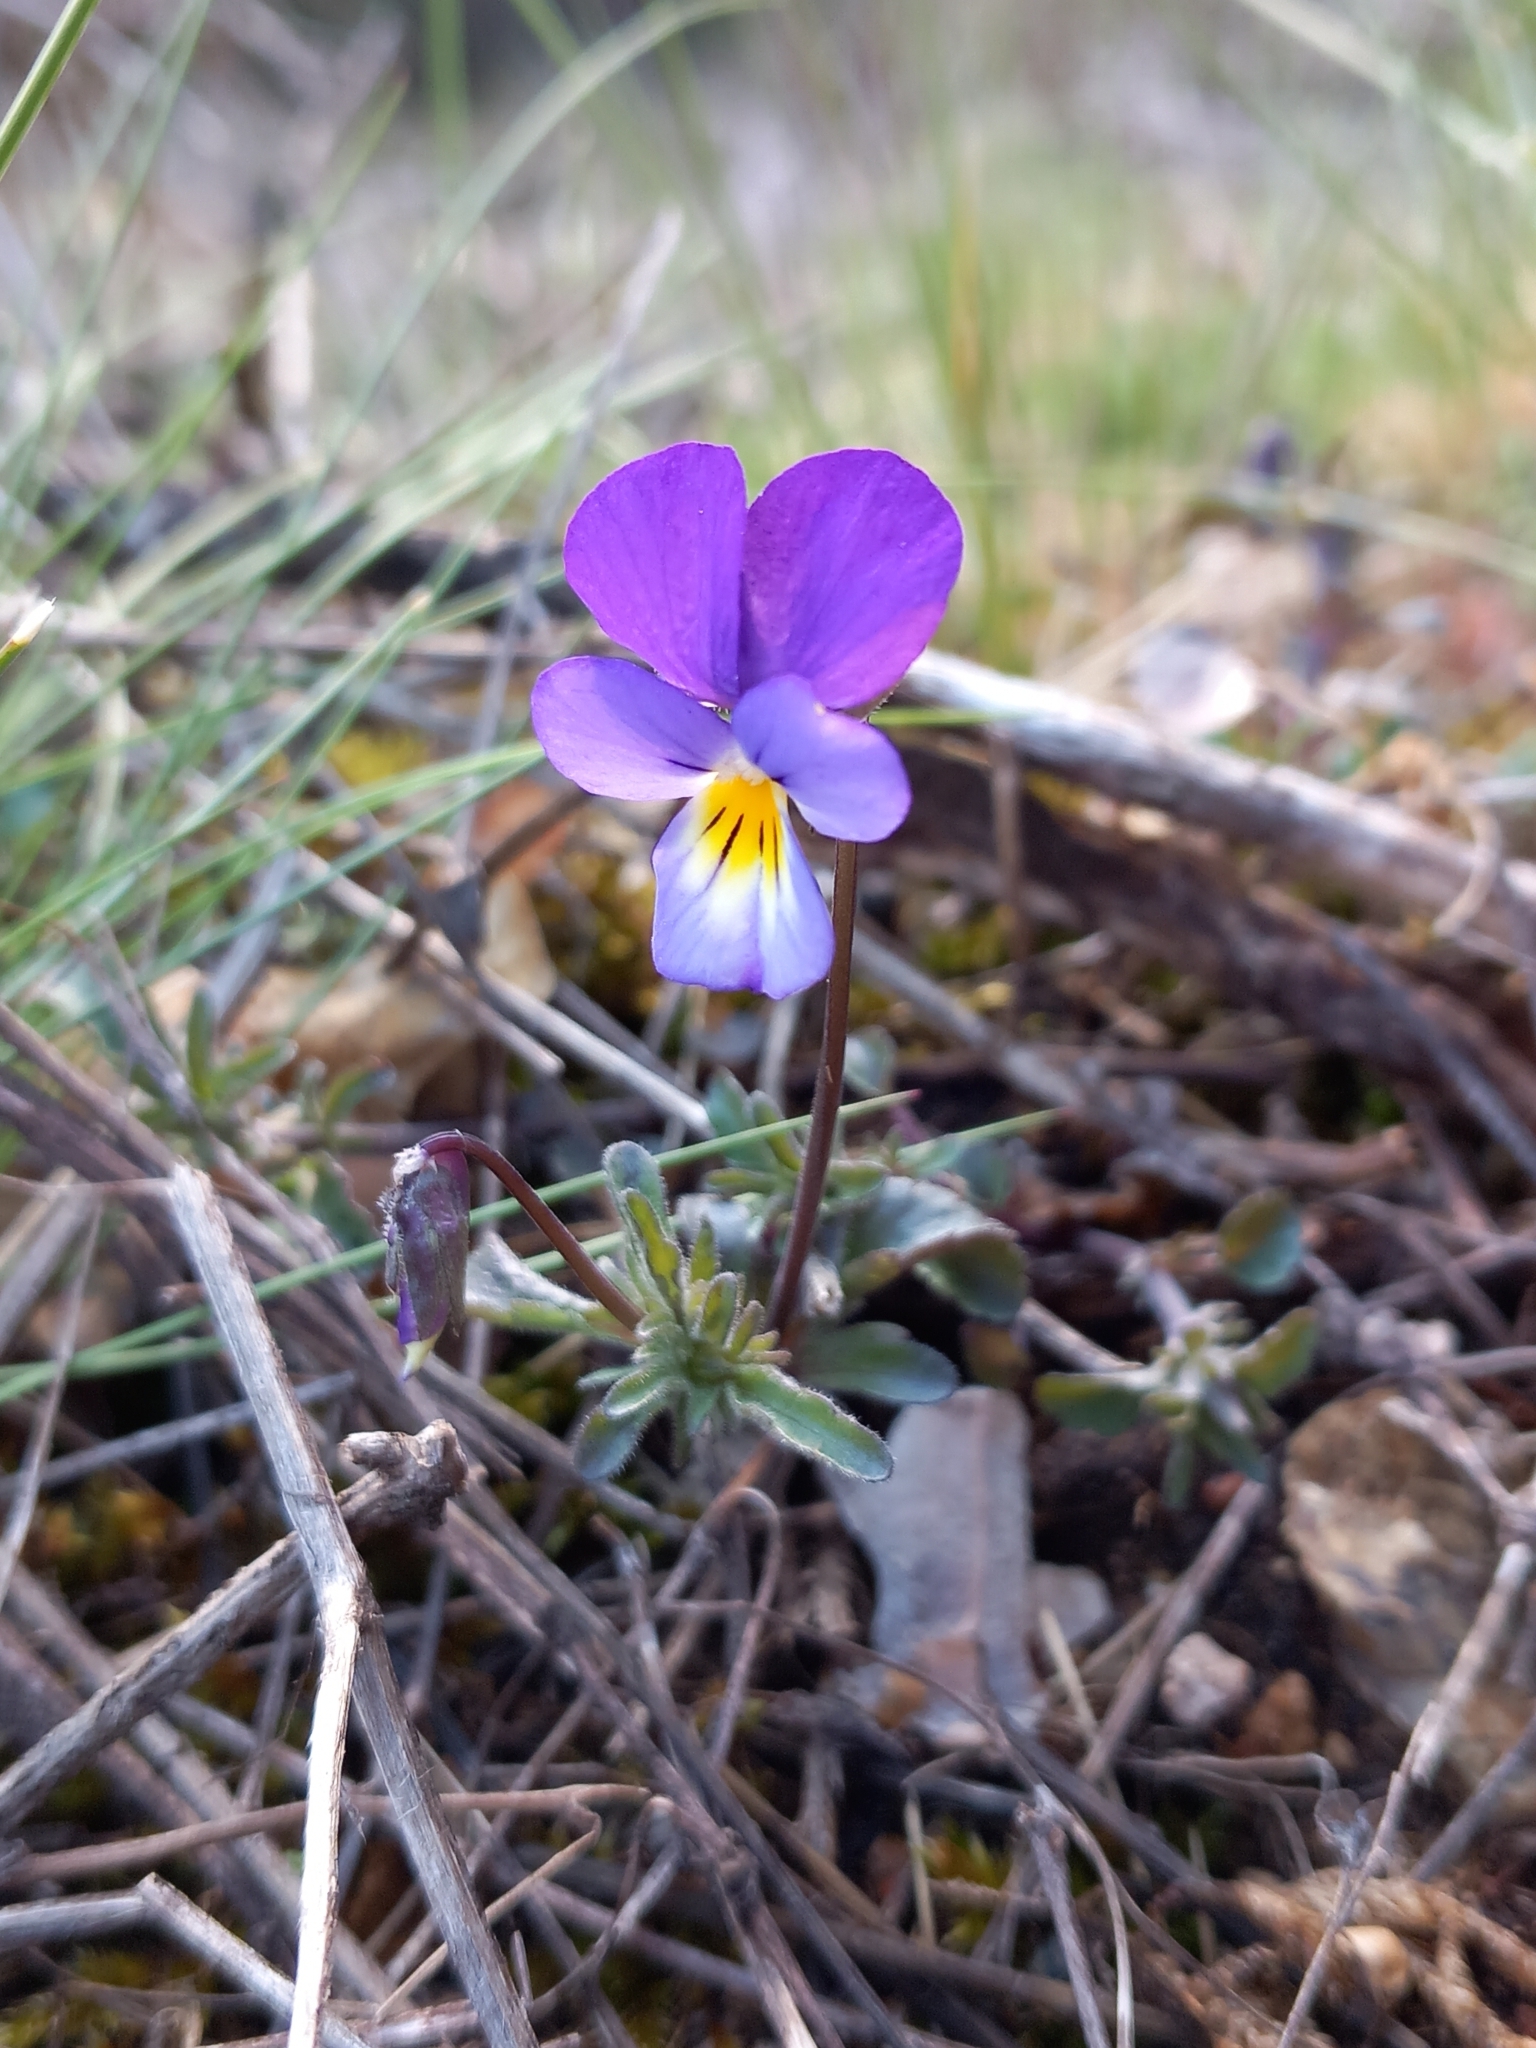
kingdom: Plantae
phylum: Tracheophyta
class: Magnoliopsida
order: Malpighiales
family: Violaceae
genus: Viola
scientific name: Viola tricolor
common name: Pansy
